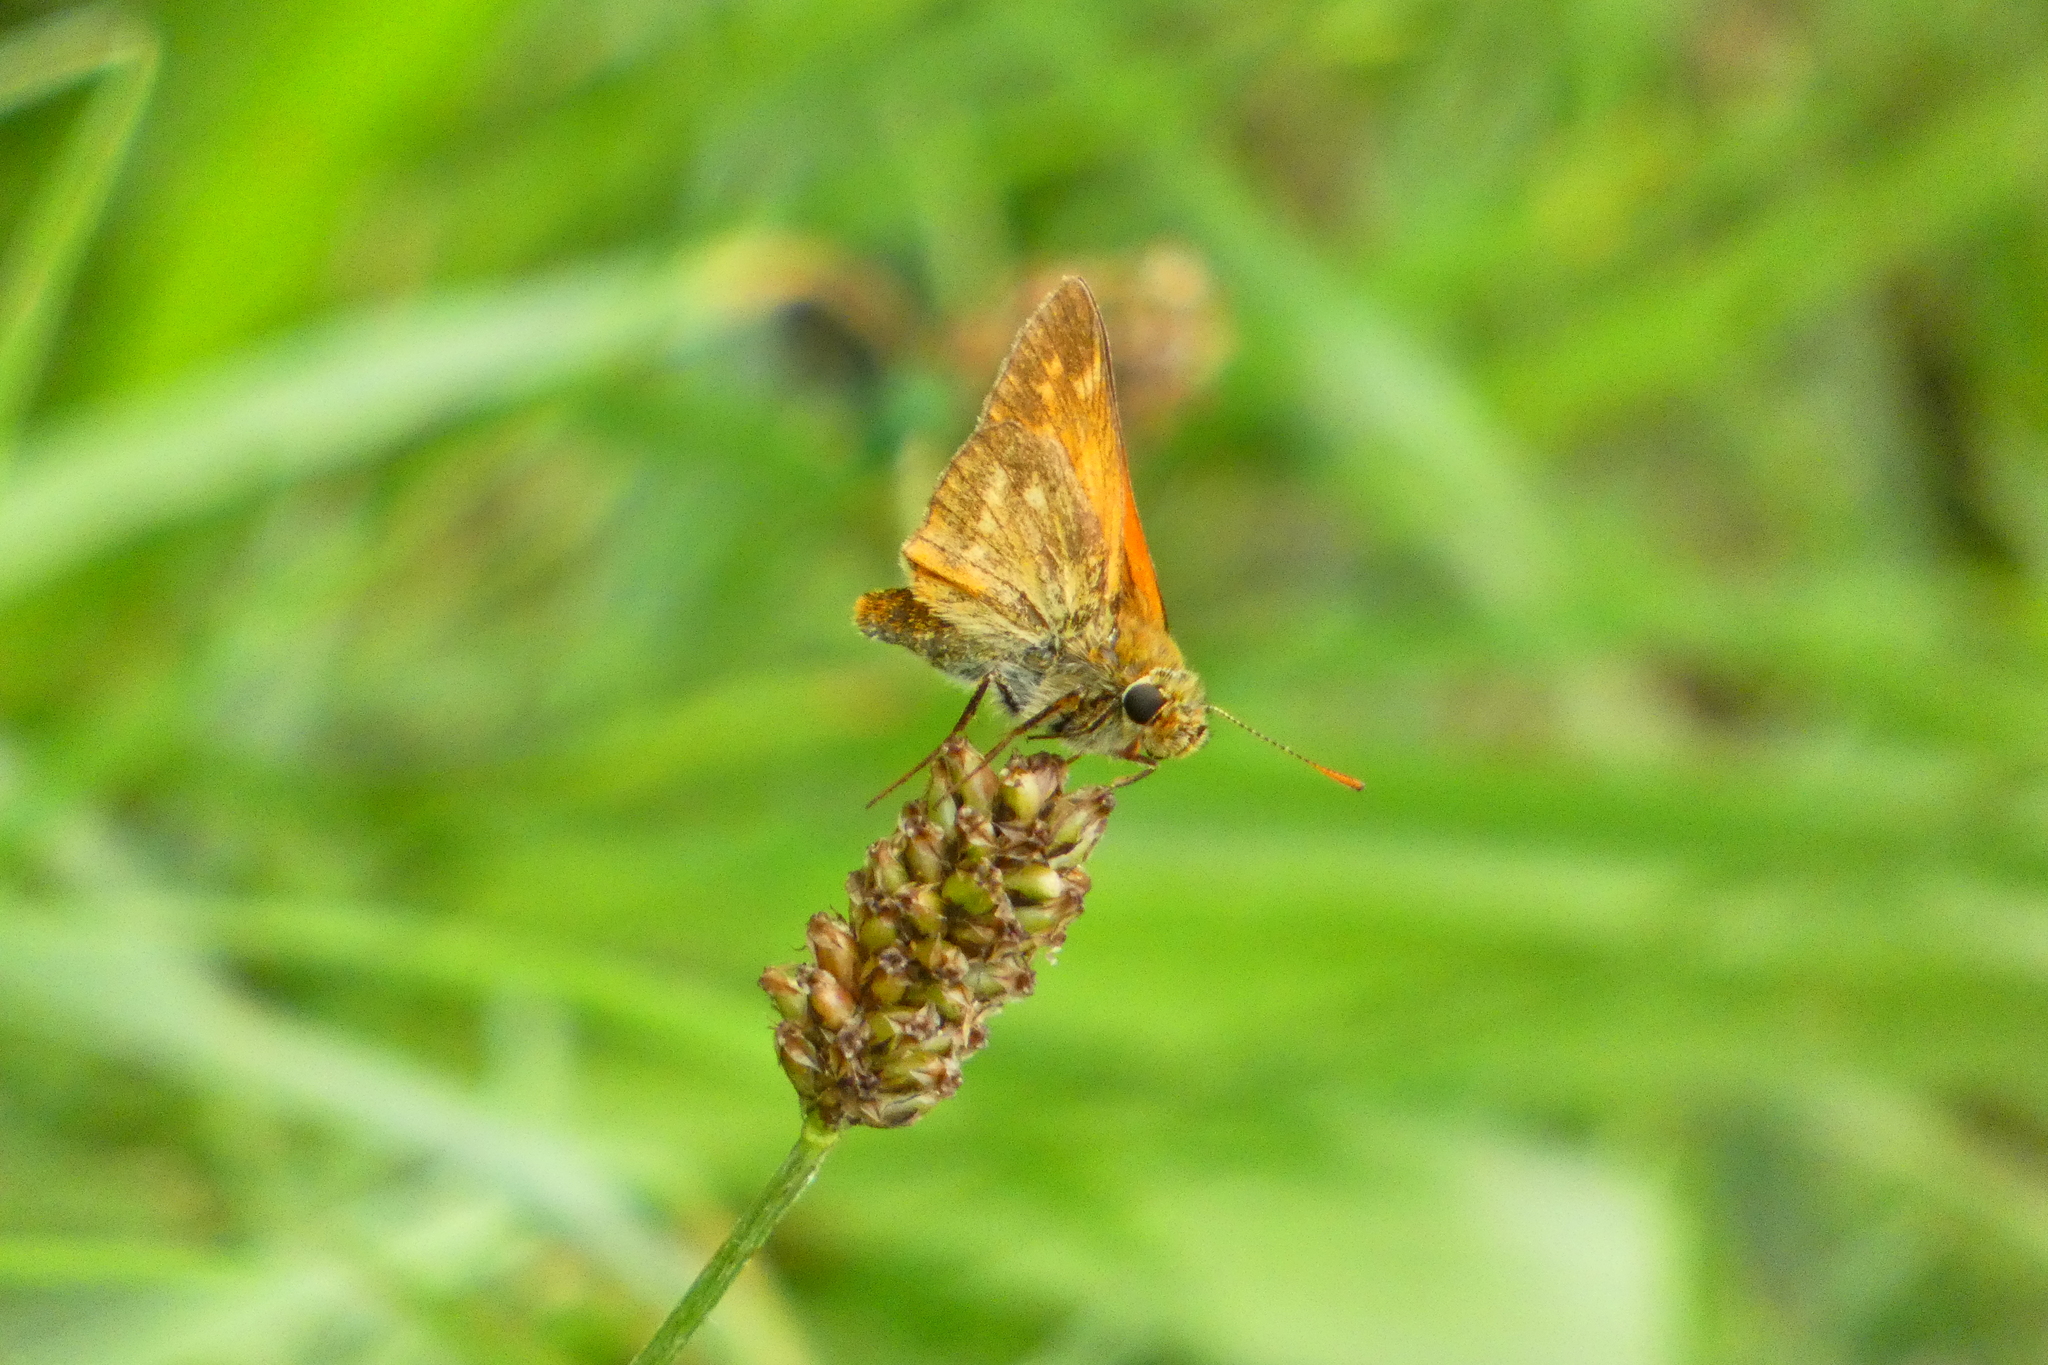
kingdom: Animalia
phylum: Arthropoda
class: Insecta
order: Lepidoptera
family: Hesperiidae
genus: Ochlodes
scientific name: Ochlodes venata
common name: Large skipper
